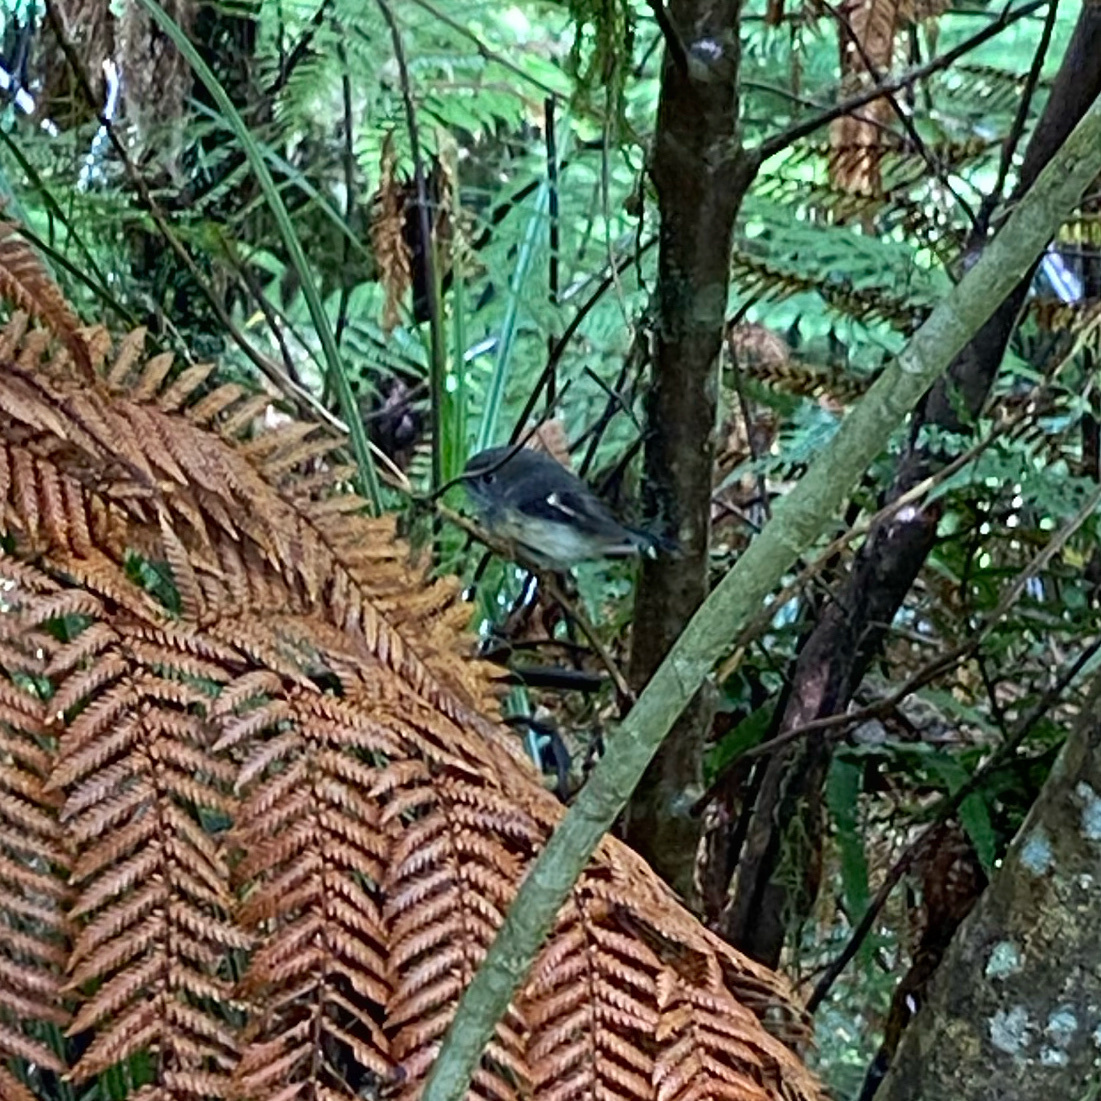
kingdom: Animalia
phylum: Chordata
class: Aves
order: Passeriformes
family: Petroicidae
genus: Petroica
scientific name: Petroica macrocephala
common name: Tomtit
